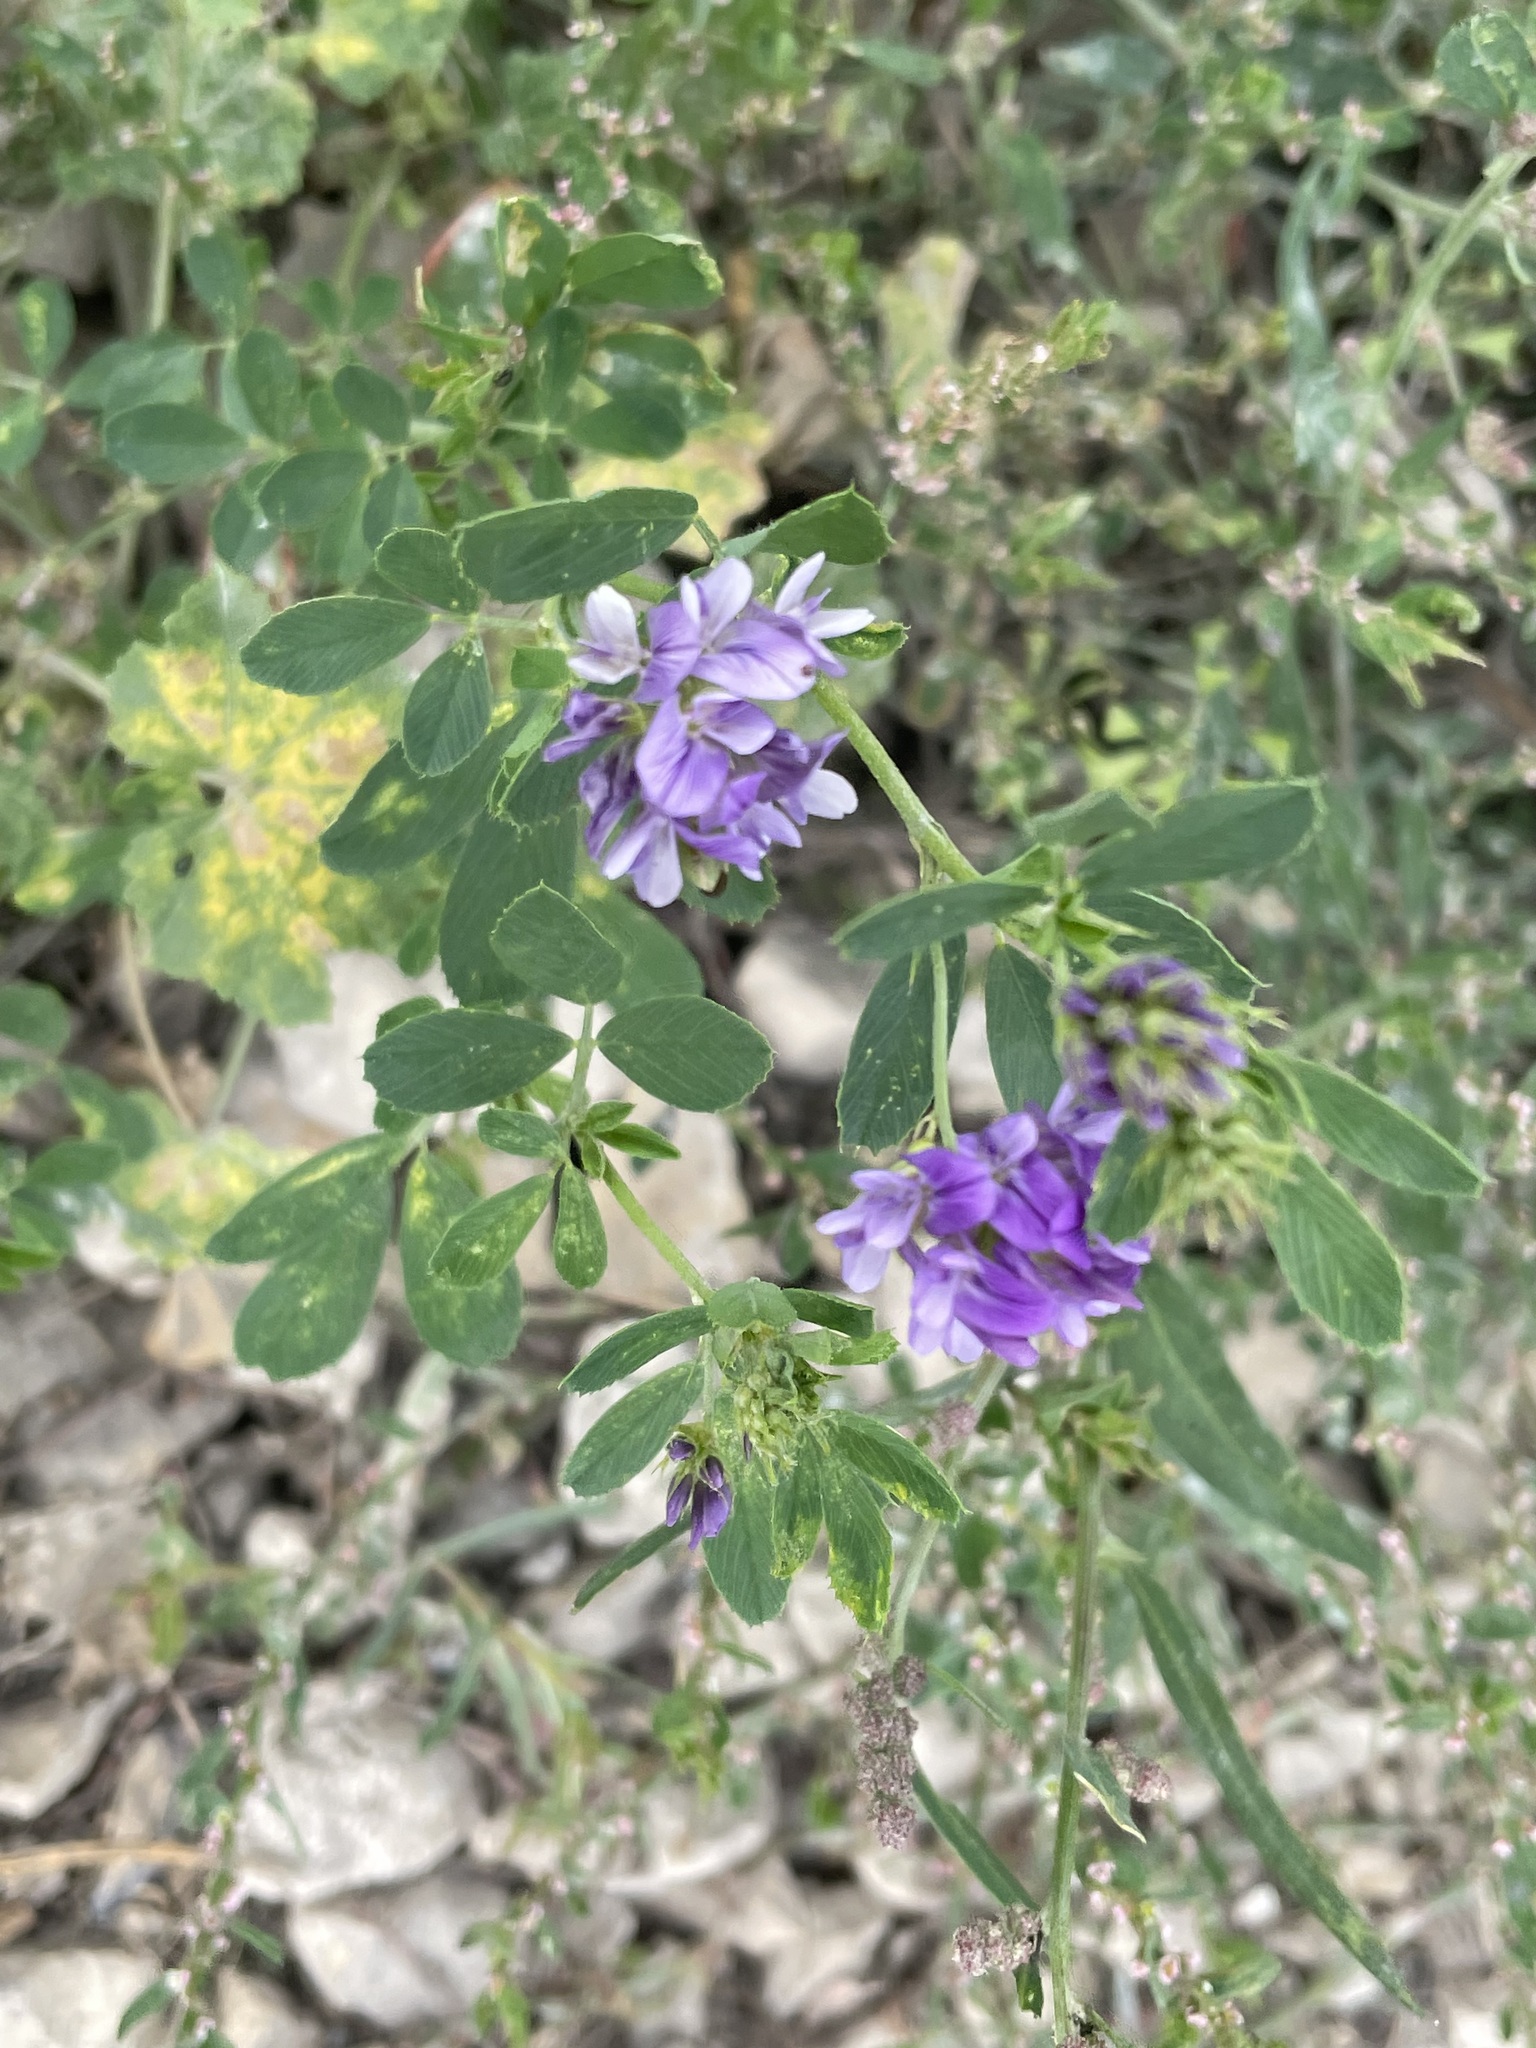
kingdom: Plantae
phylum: Tracheophyta
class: Magnoliopsida
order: Fabales
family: Fabaceae
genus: Medicago
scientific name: Medicago sativa
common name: Alfalfa
